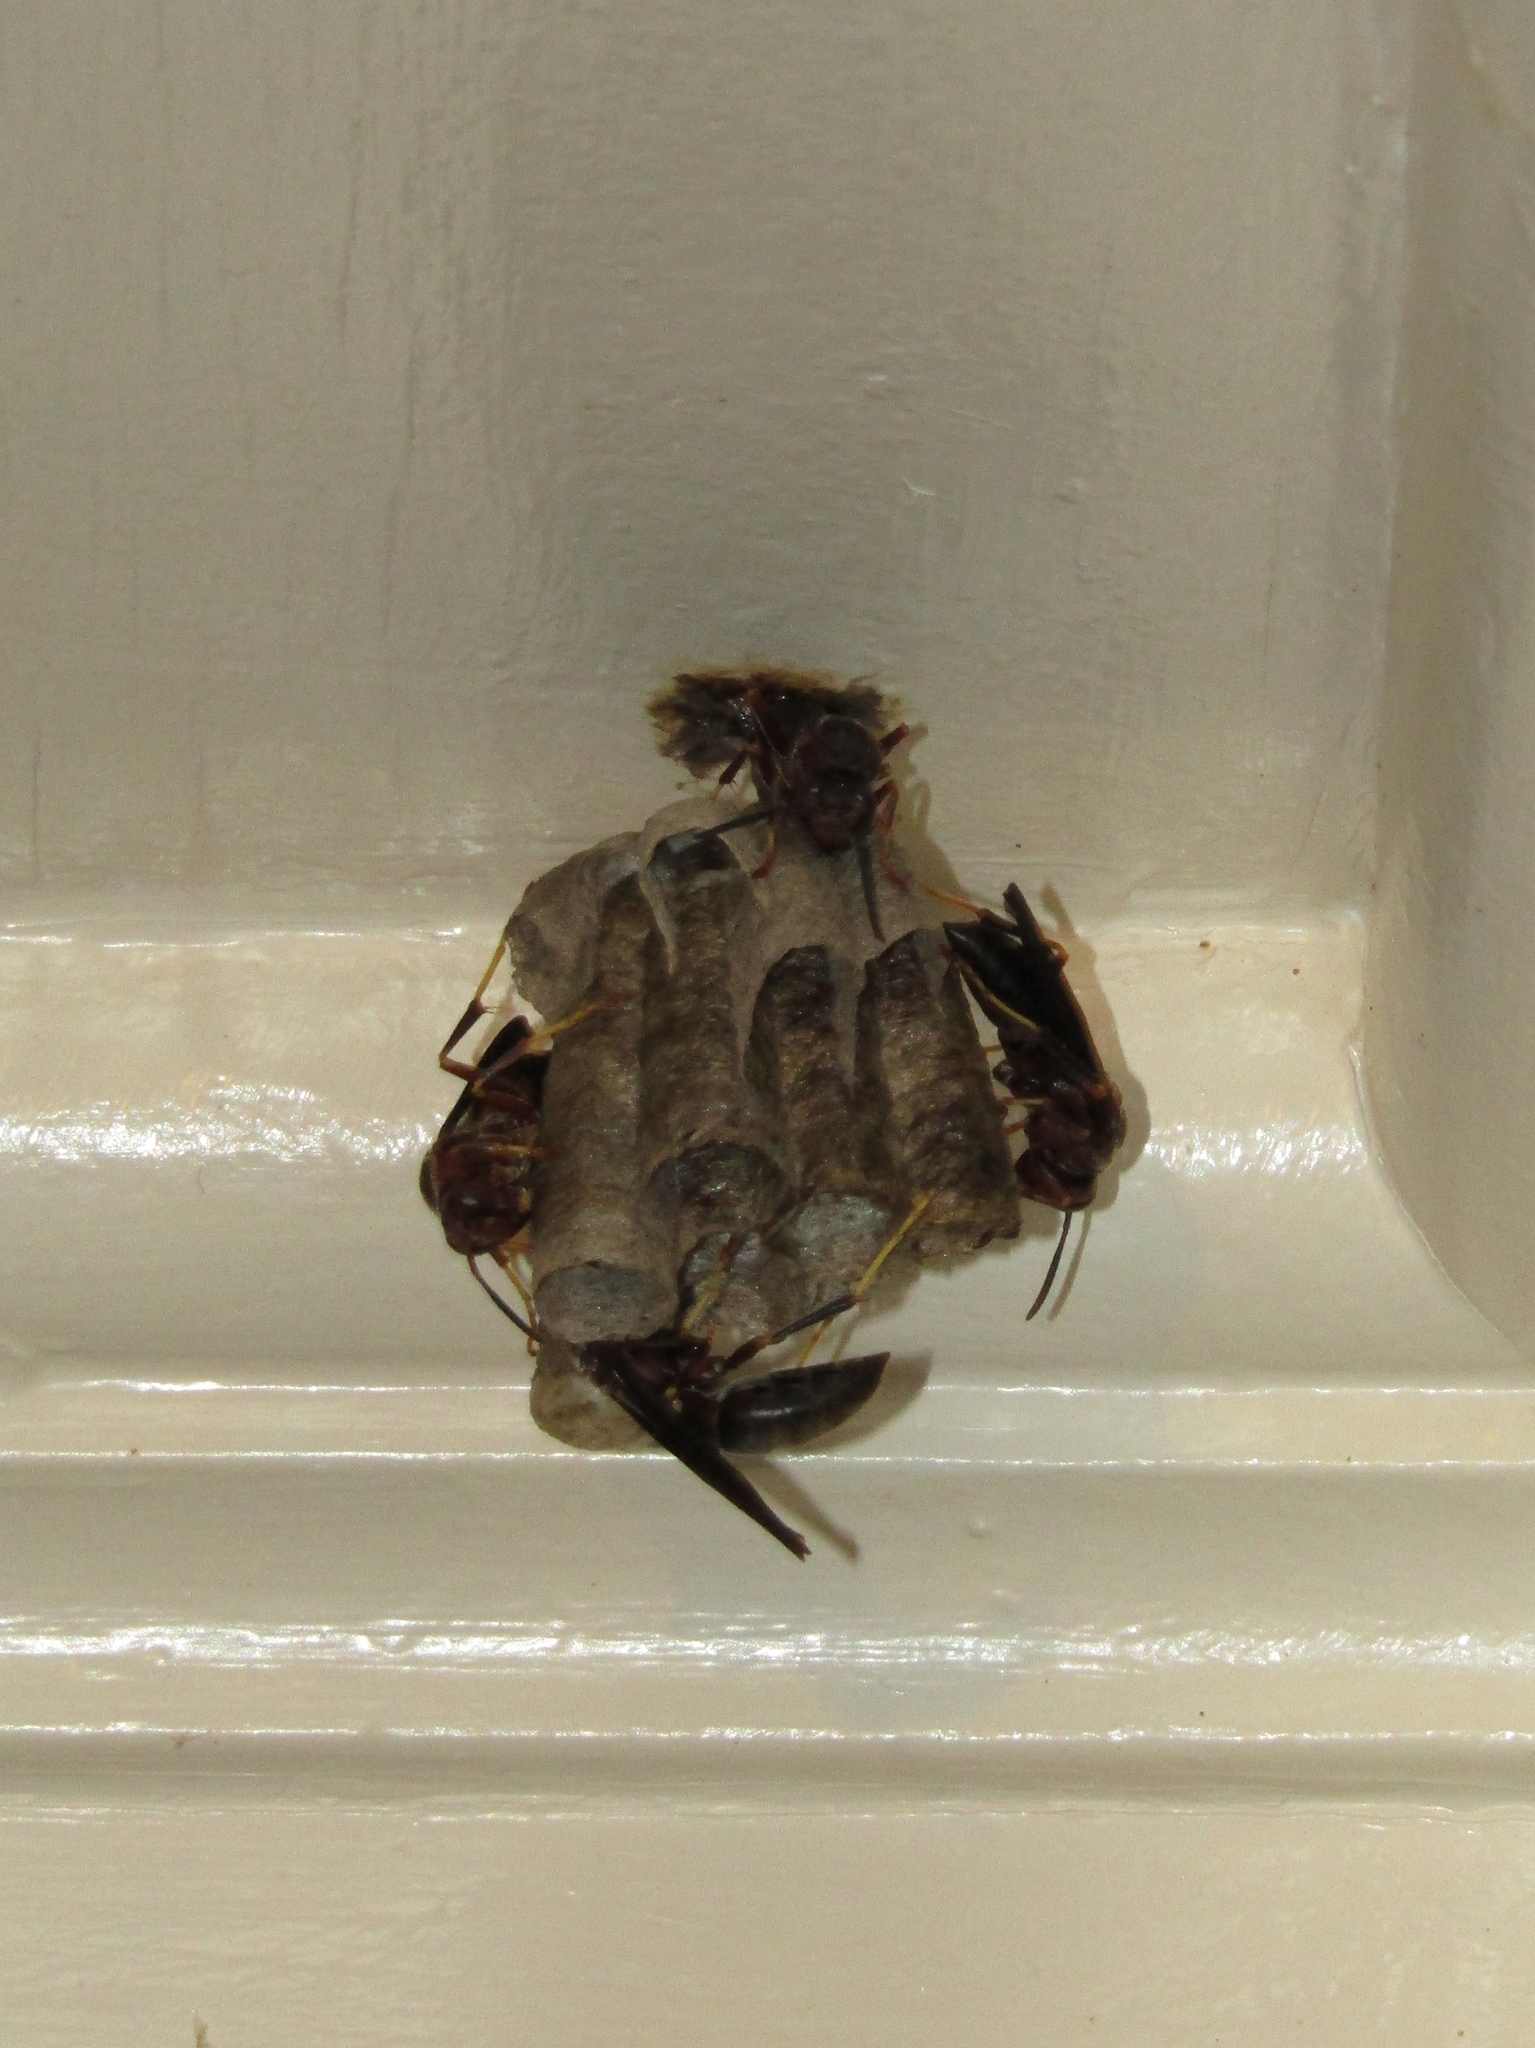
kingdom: Animalia
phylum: Arthropoda
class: Insecta
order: Hymenoptera
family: Eumenidae
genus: Polistes
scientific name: Polistes metricus
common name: Metric paper wasp
